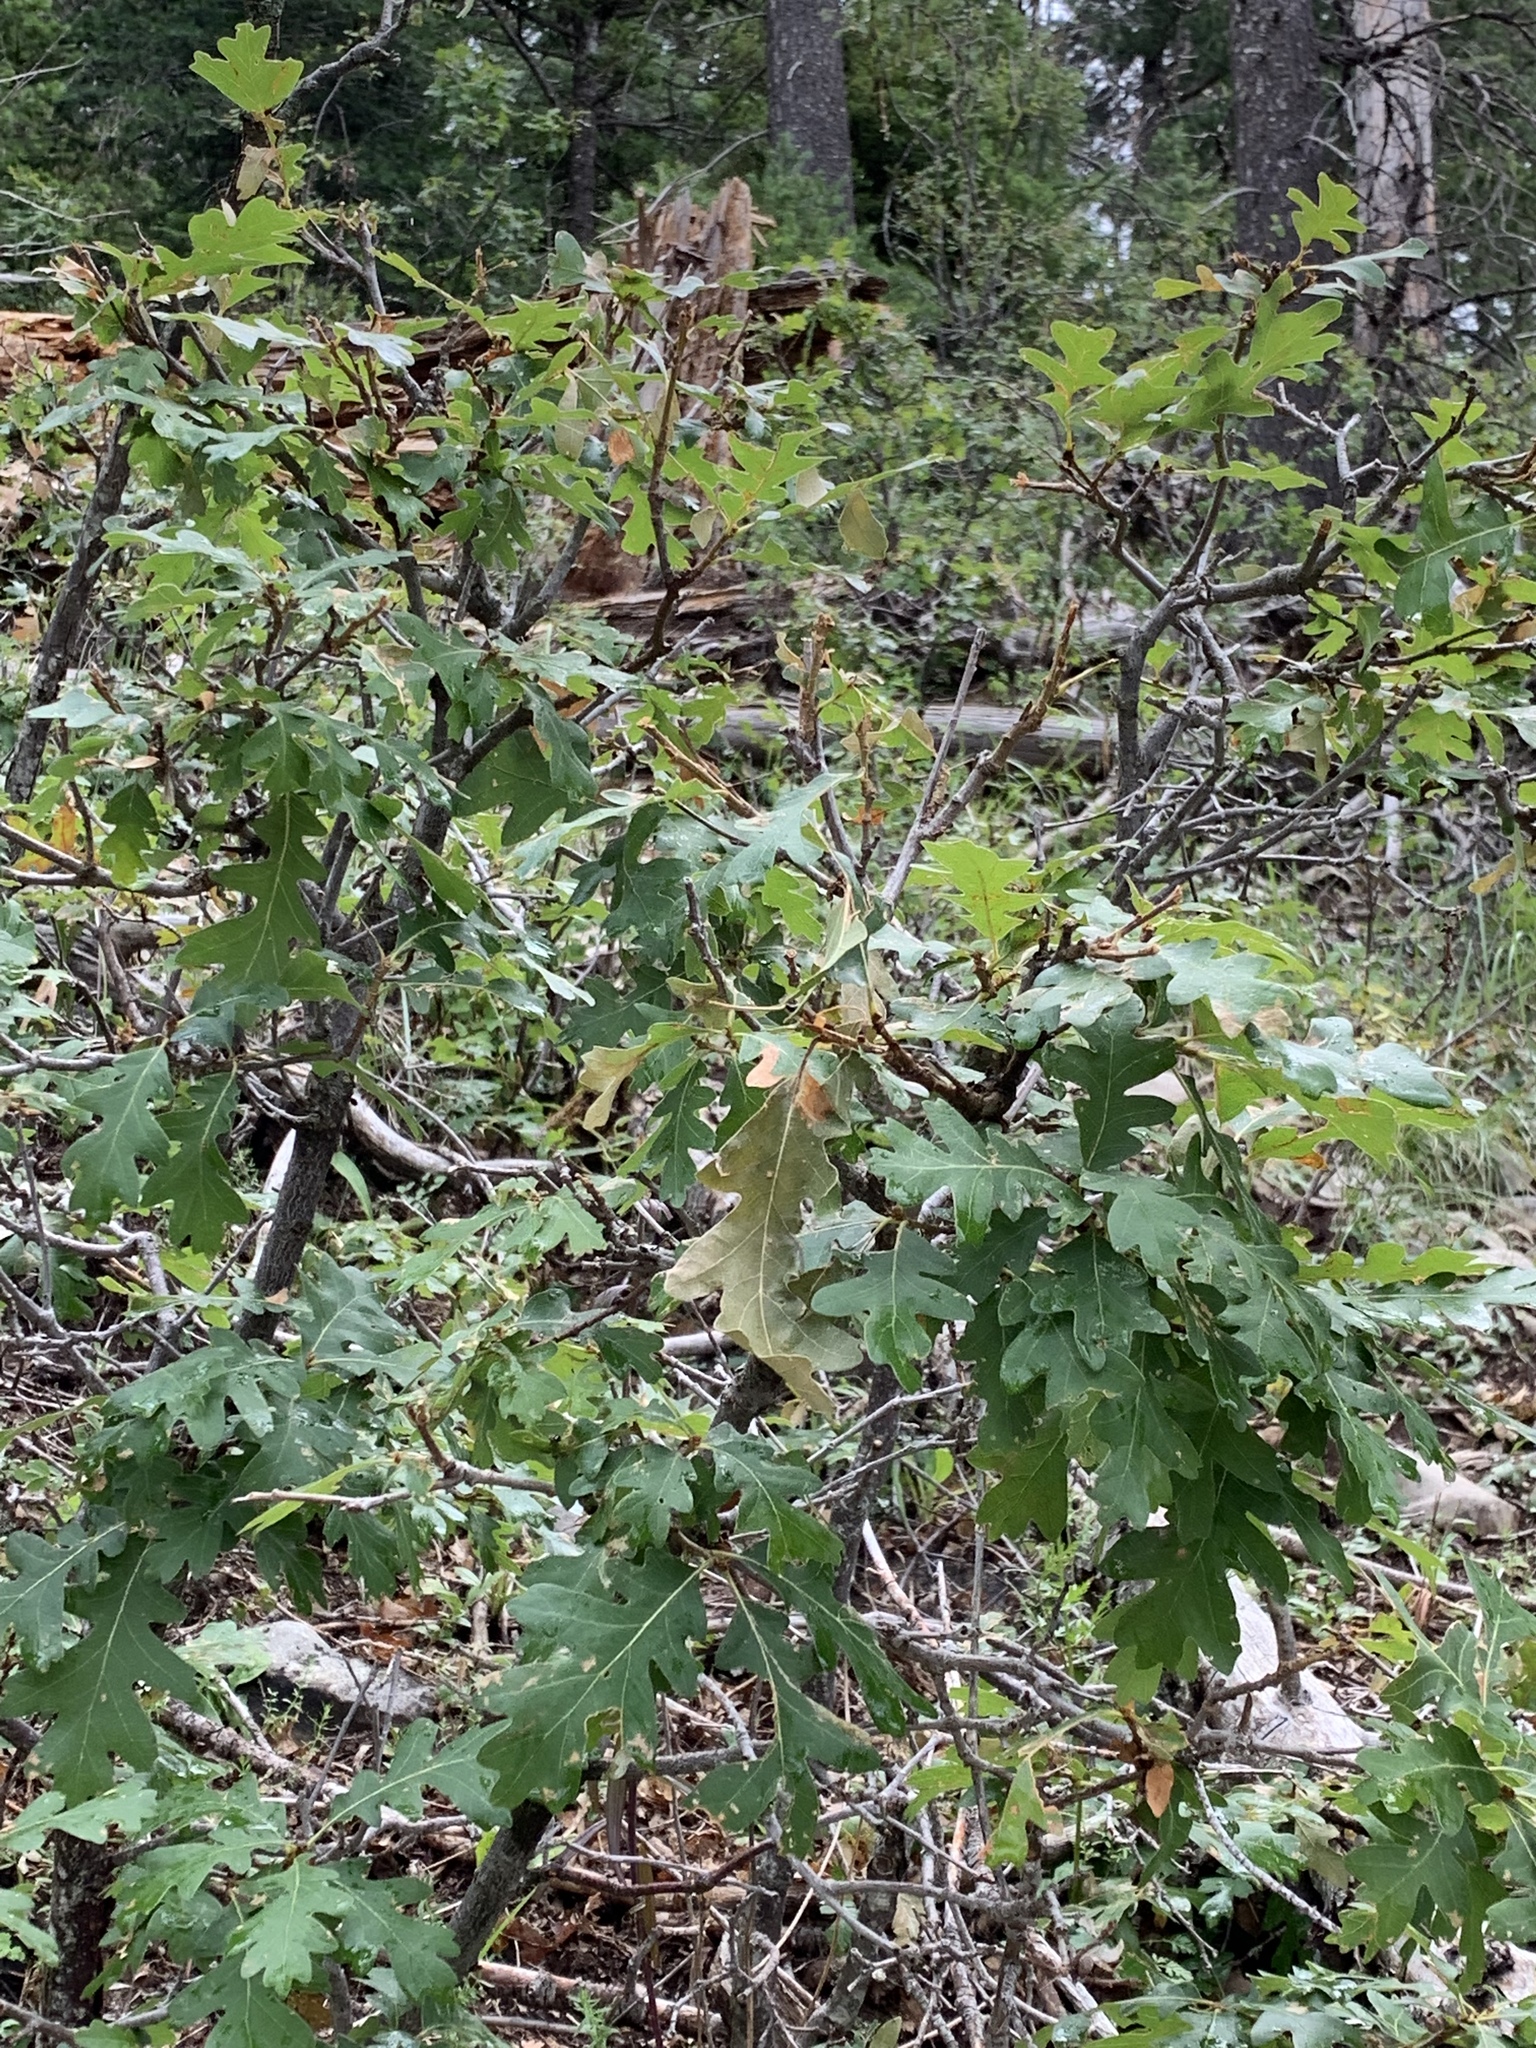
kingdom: Plantae
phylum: Tracheophyta
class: Magnoliopsida
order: Fagales
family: Fagaceae
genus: Quercus
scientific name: Quercus gambelii
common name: Gambel oak
